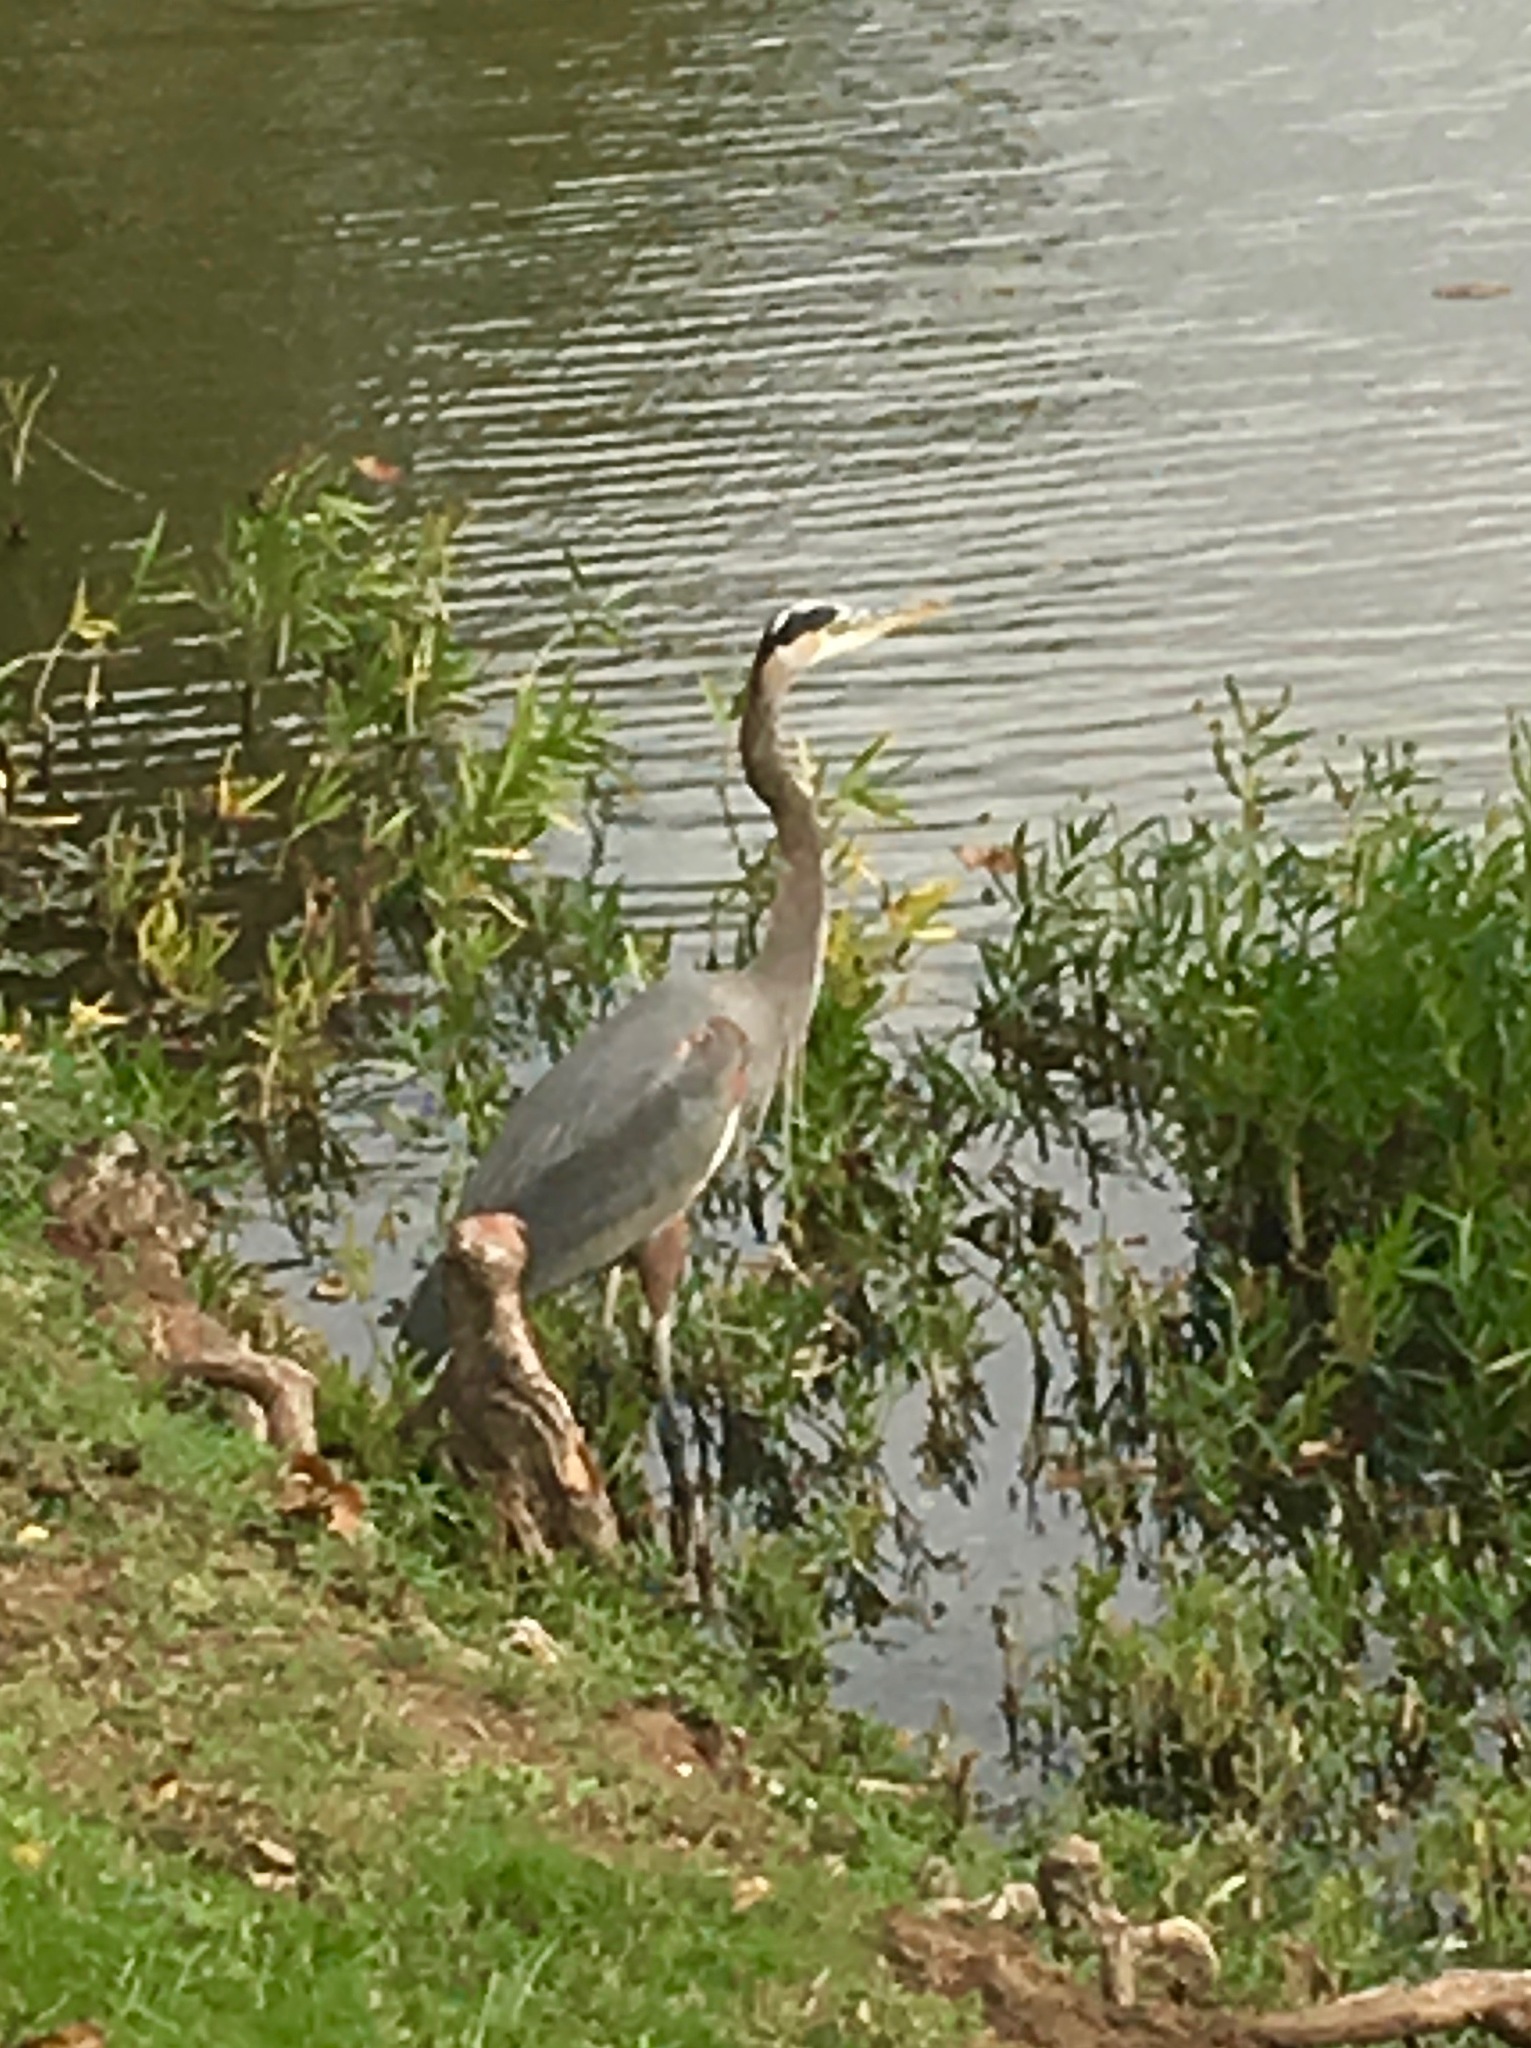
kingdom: Animalia
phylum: Chordata
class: Aves
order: Pelecaniformes
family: Ardeidae
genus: Ardea
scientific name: Ardea herodias
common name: Great blue heron
